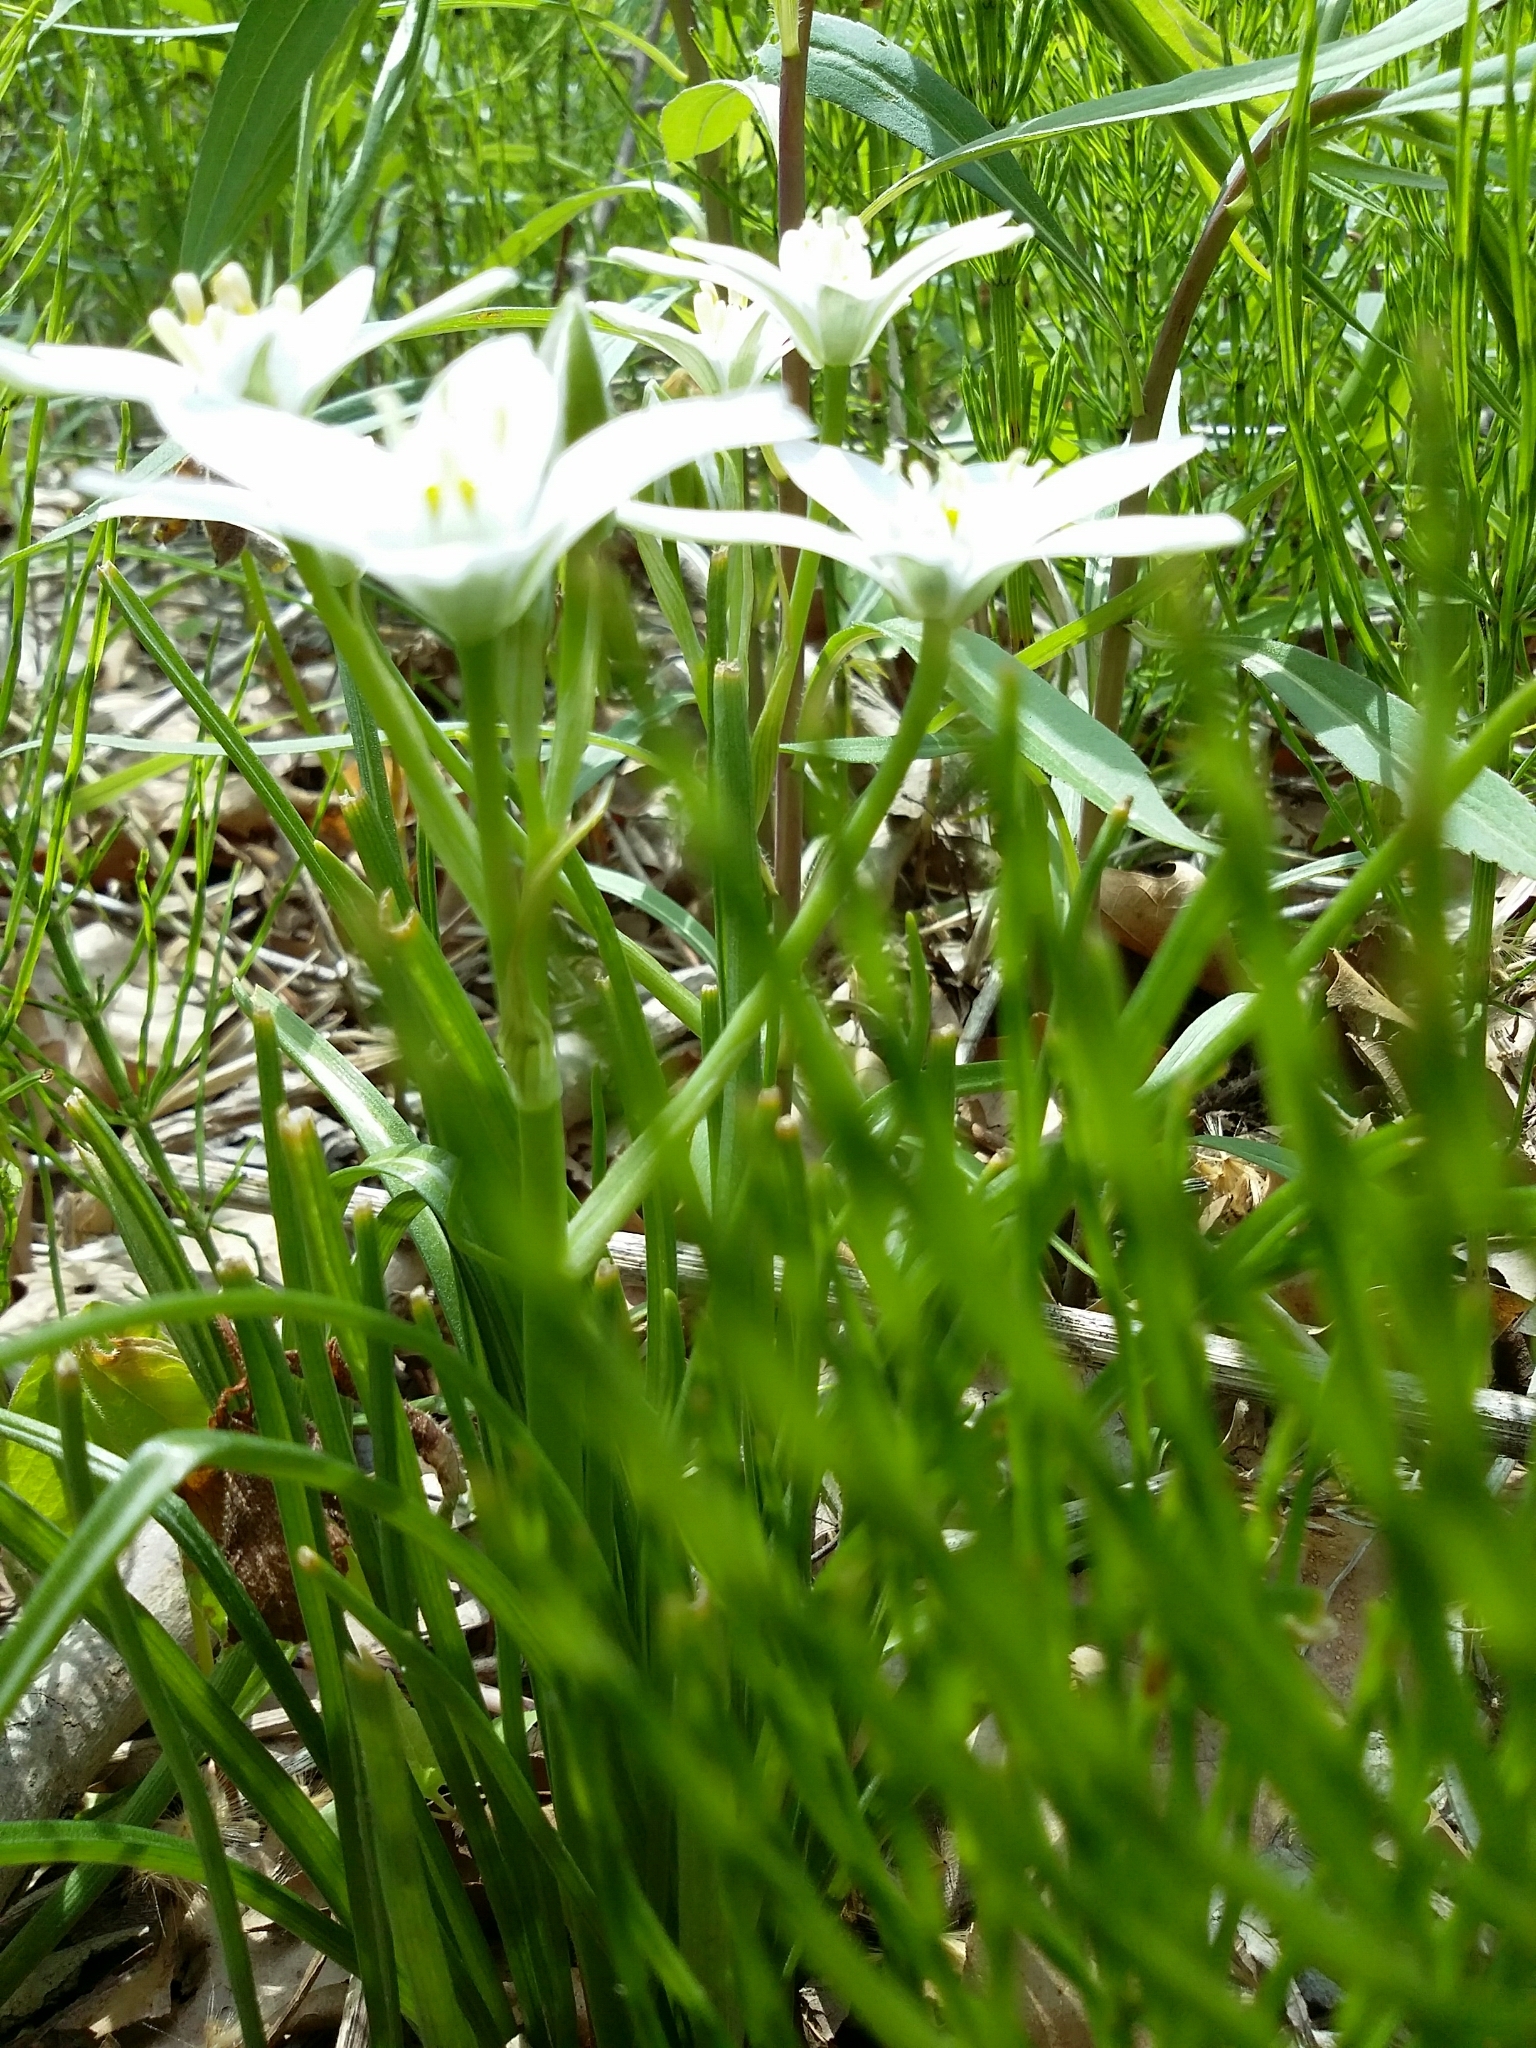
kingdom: Plantae
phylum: Tracheophyta
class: Liliopsida
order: Asparagales
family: Asparagaceae
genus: Ornithogalum
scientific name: Ornithogalum umbellatum
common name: Garden star-of-bethlehem
